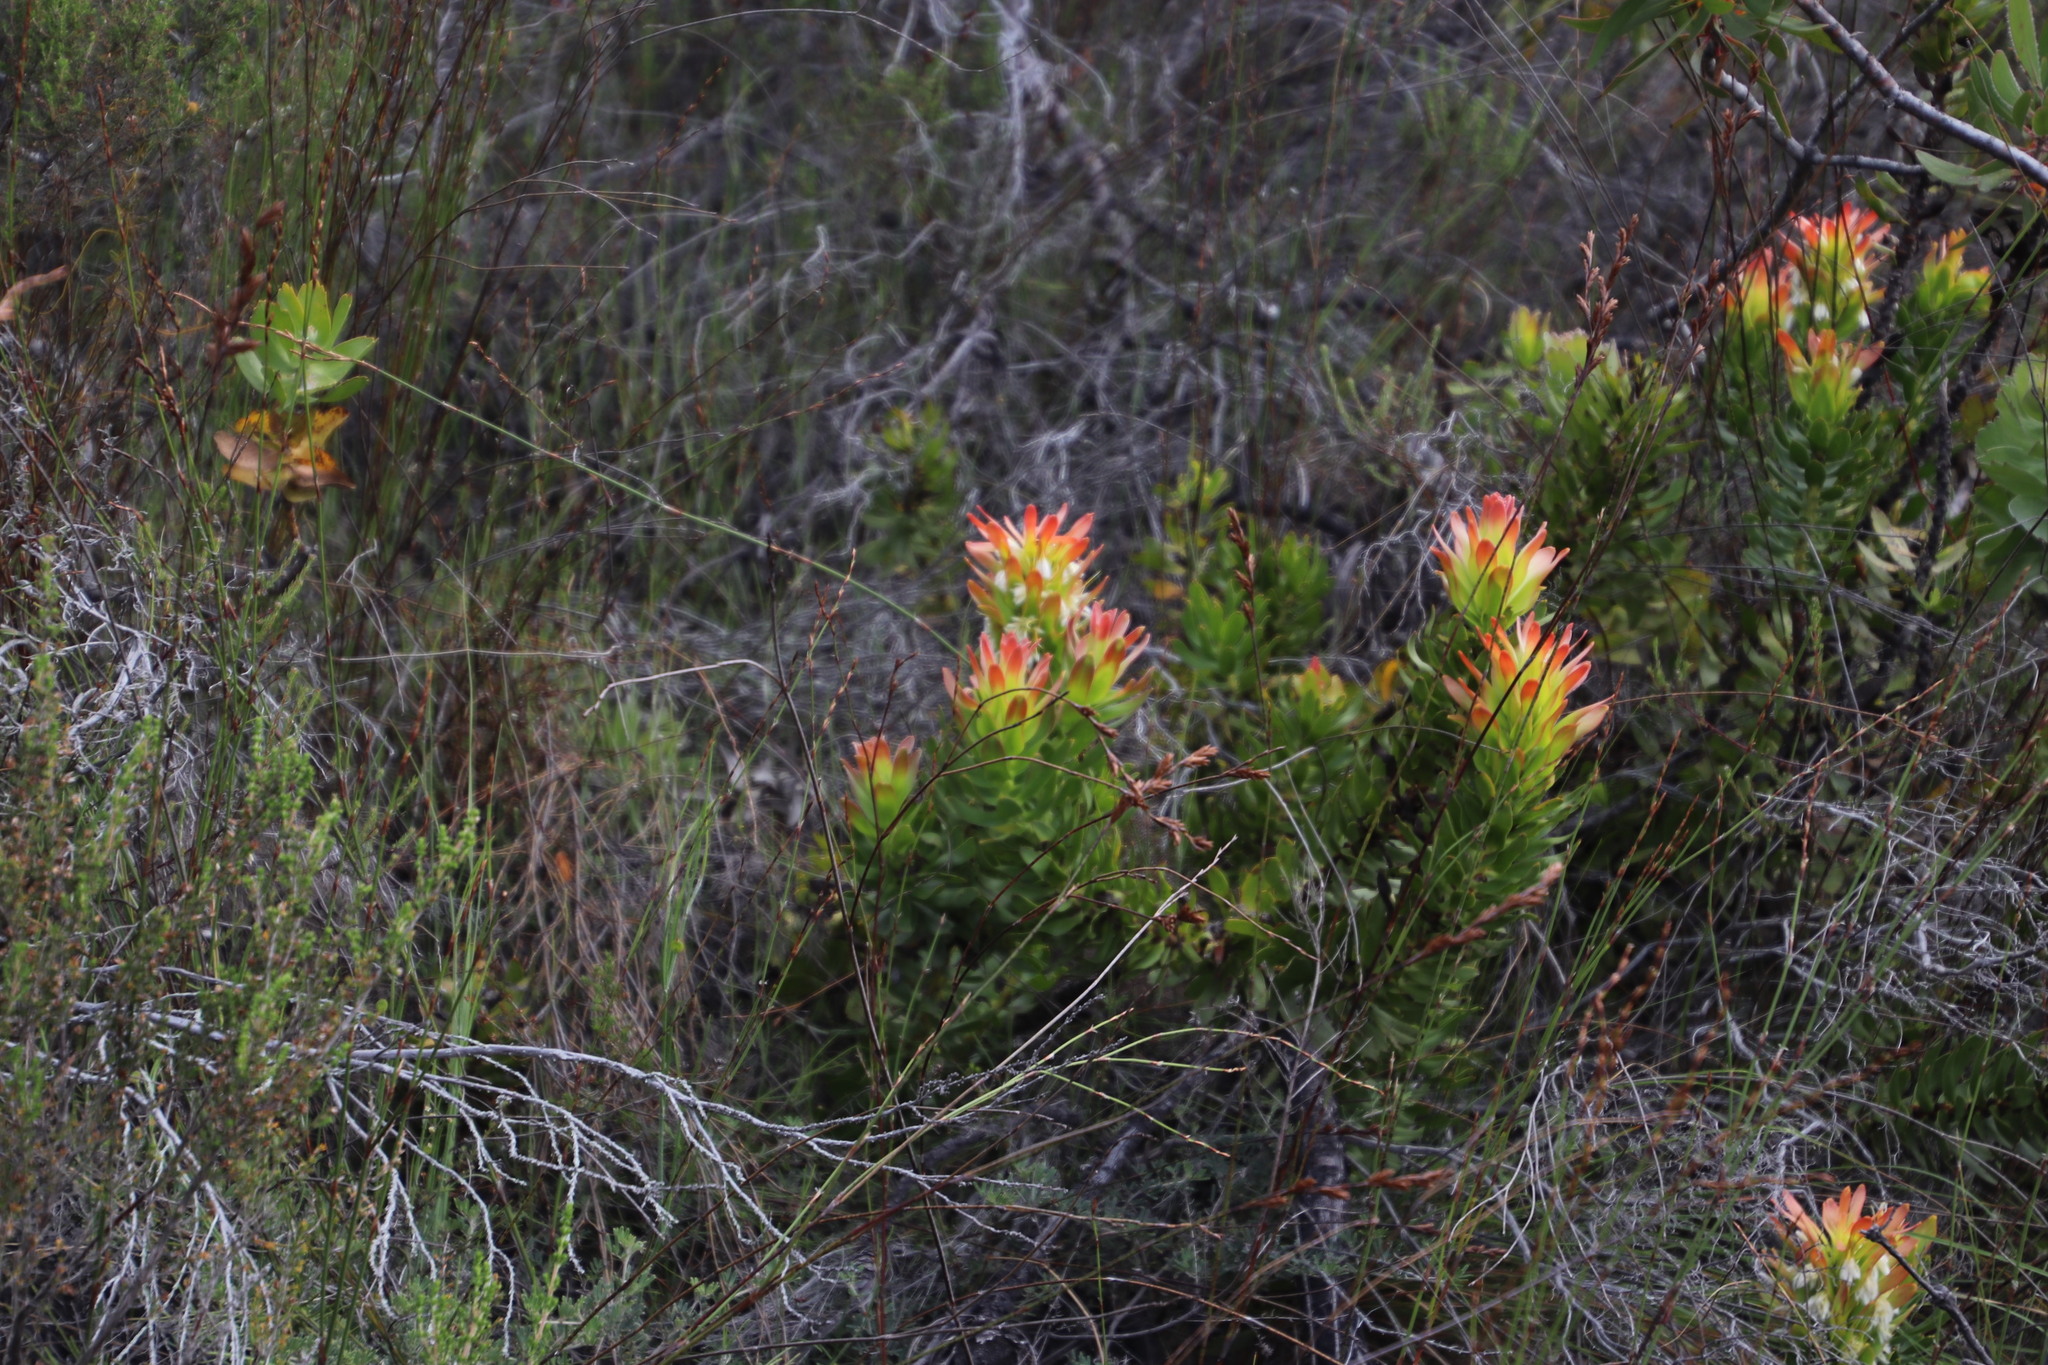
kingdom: Plantae
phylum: Tracheophyta
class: Magnoliopsida
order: Proteales
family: Proteaceae
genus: Mimetes
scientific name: Mimetes cucullatus
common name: Common pagoda
